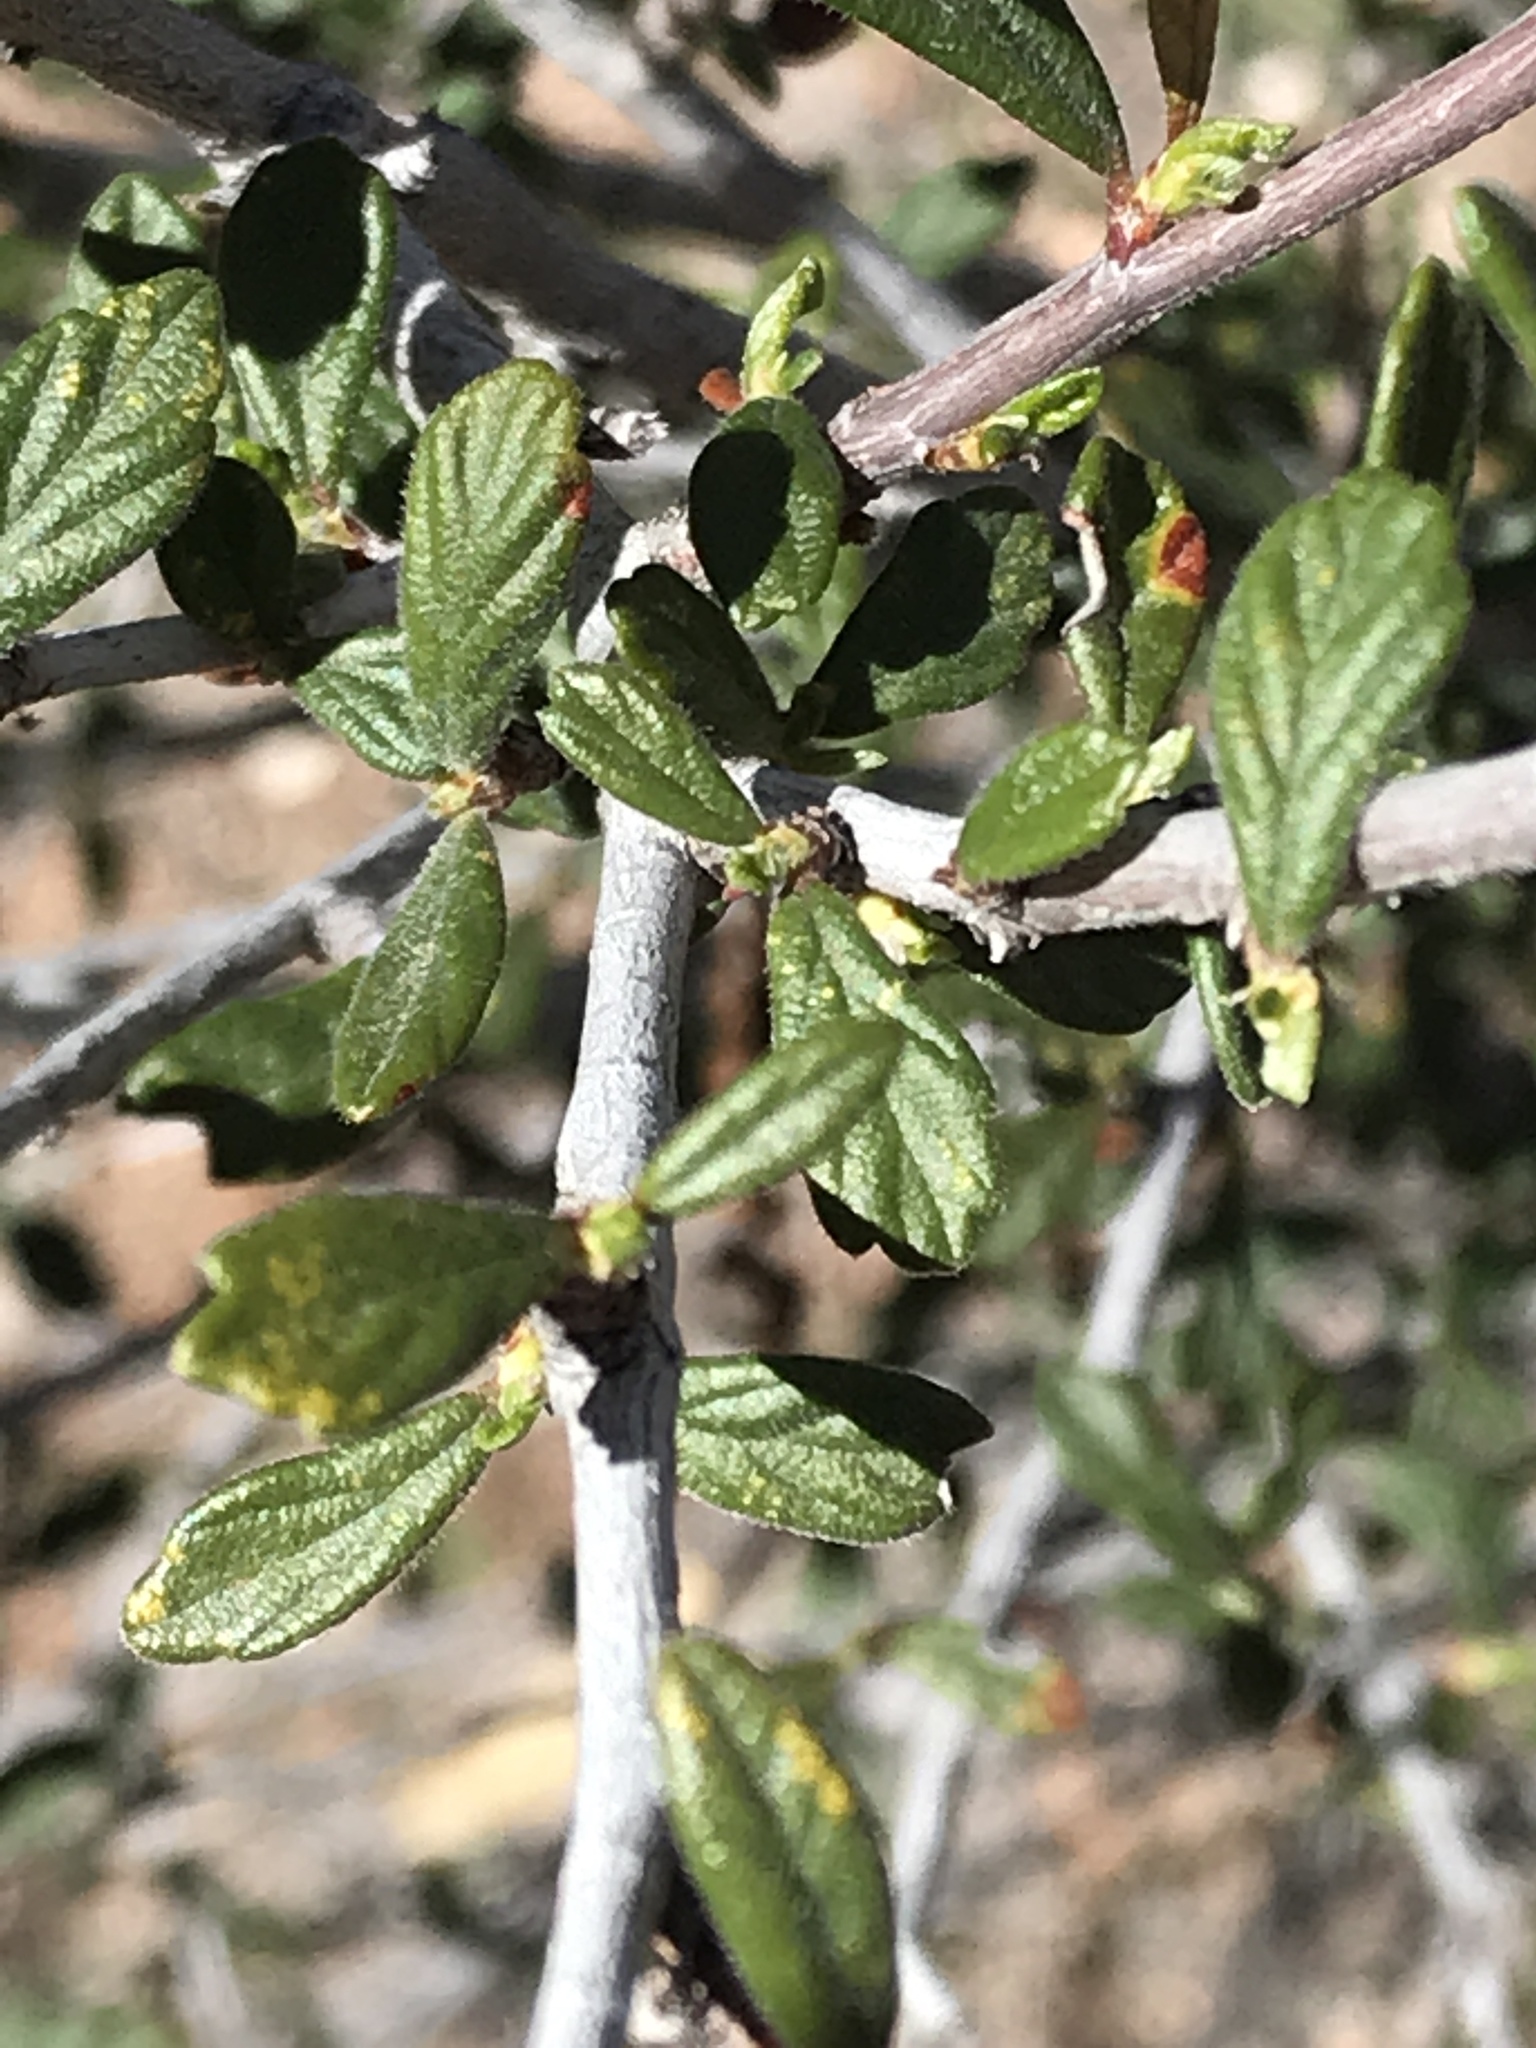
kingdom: Plantae
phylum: Tracheophyta
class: Magnoliopsida
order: Rosales
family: Rosaceae
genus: Cercocarpus
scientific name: Cercocarpus montanus
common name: Alder-leaf cercocarpus
